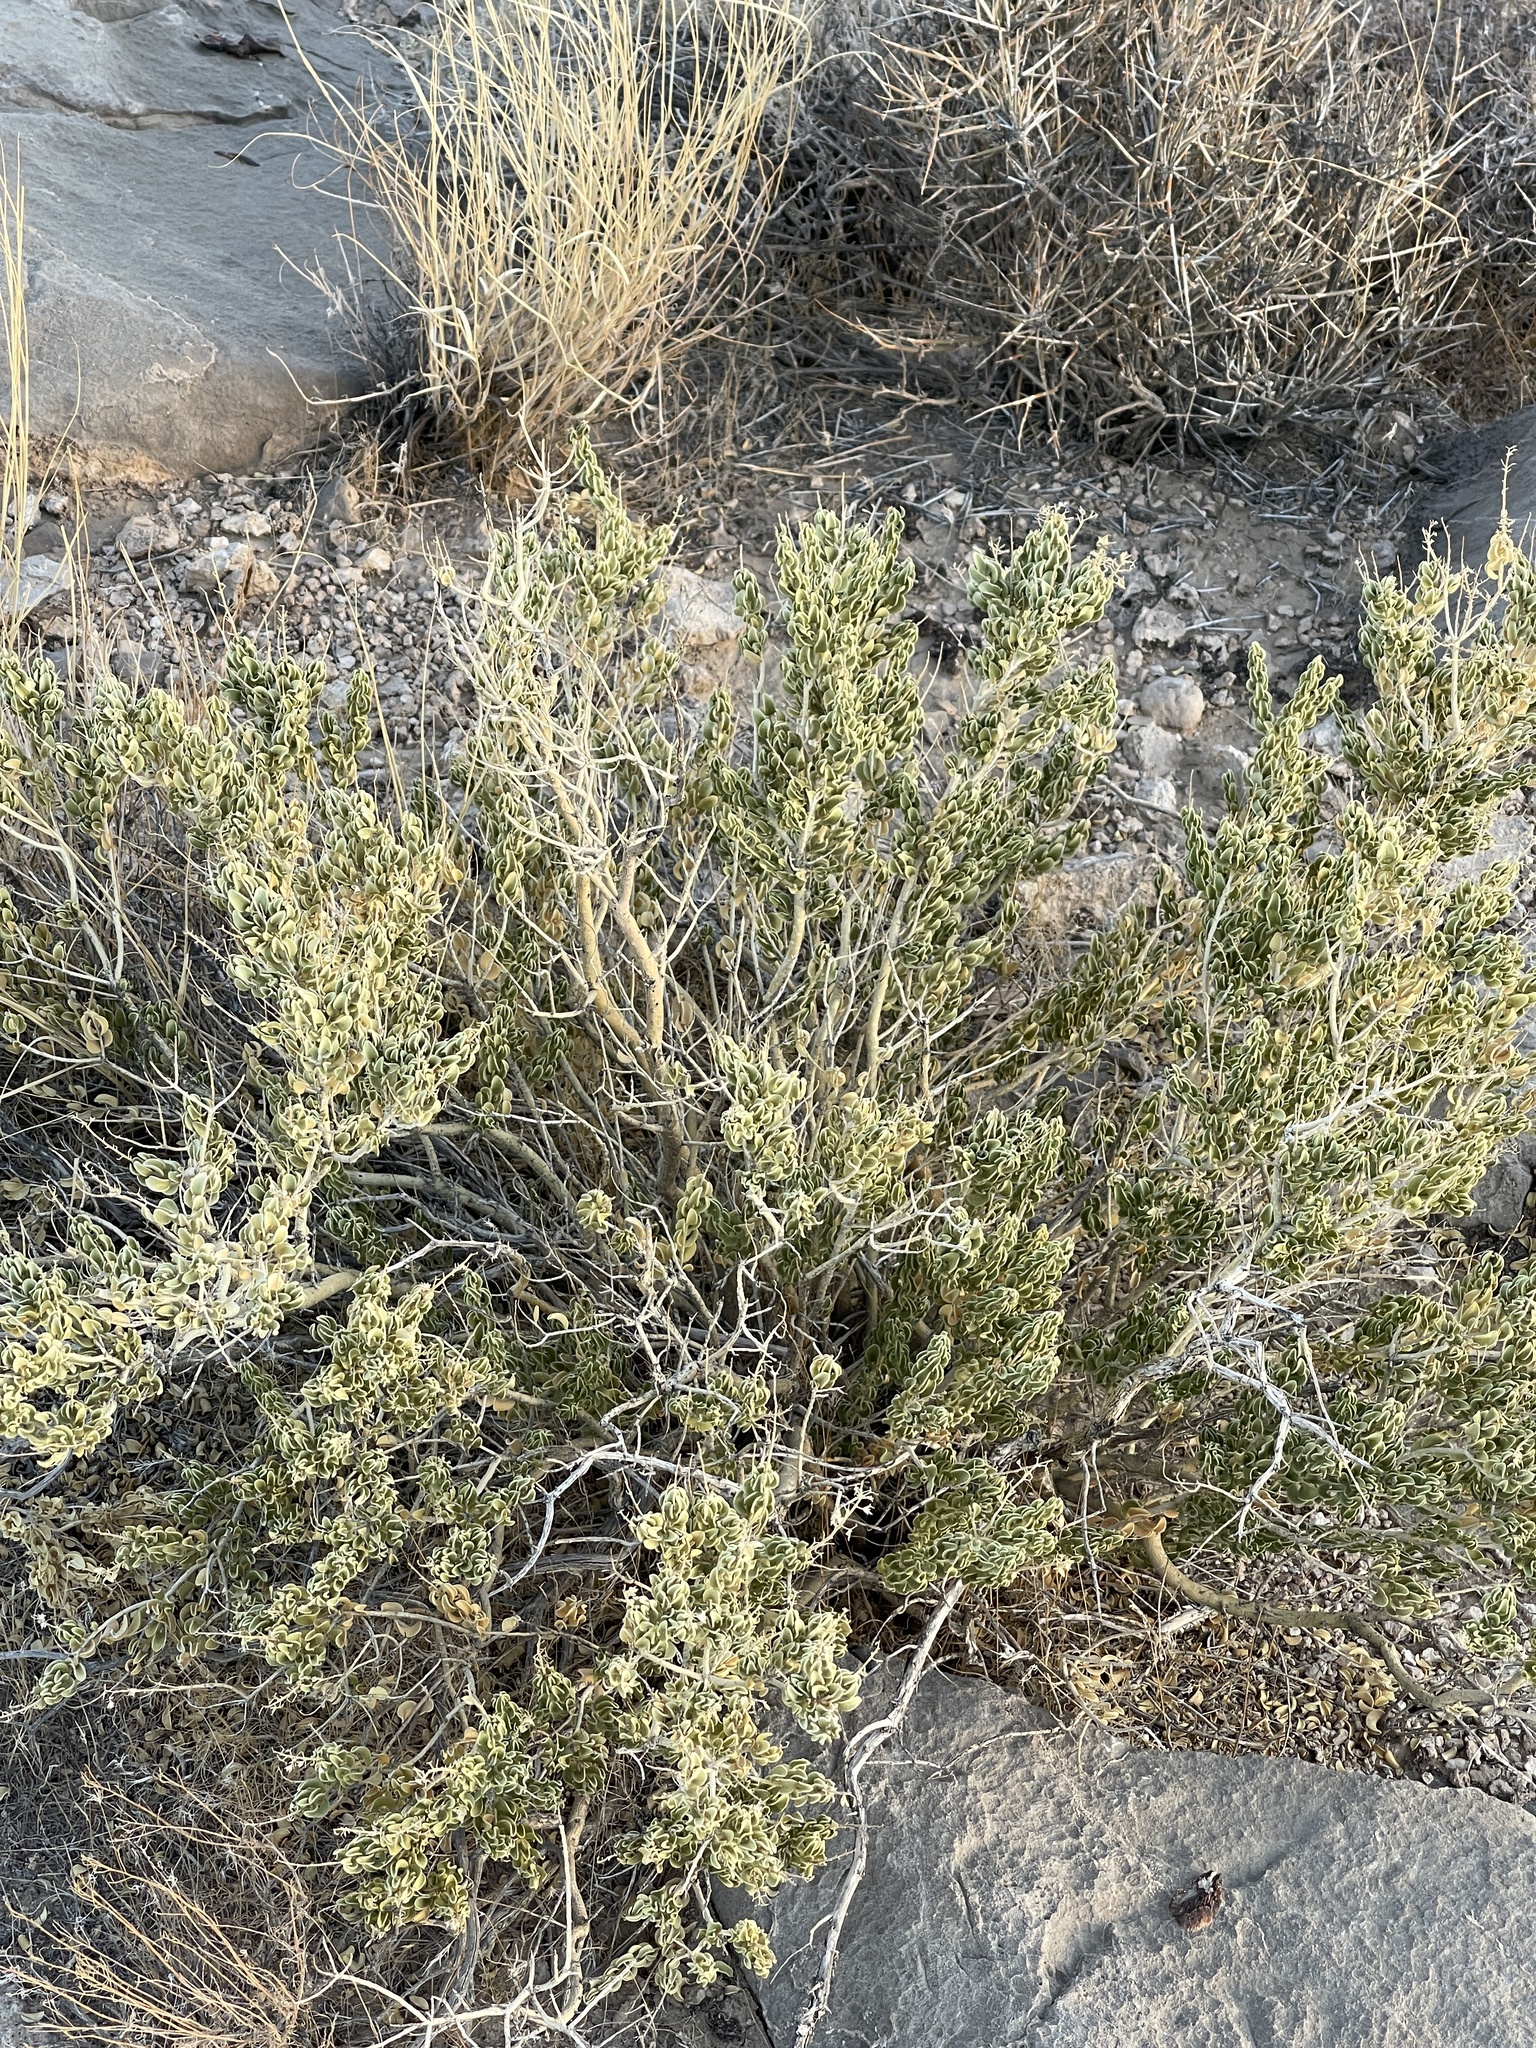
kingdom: Plantae
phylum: Tracheophyta
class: Magnoliopsida
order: Celastrales
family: Celastraceae
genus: Mortonia
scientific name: Mortonia utahensis
